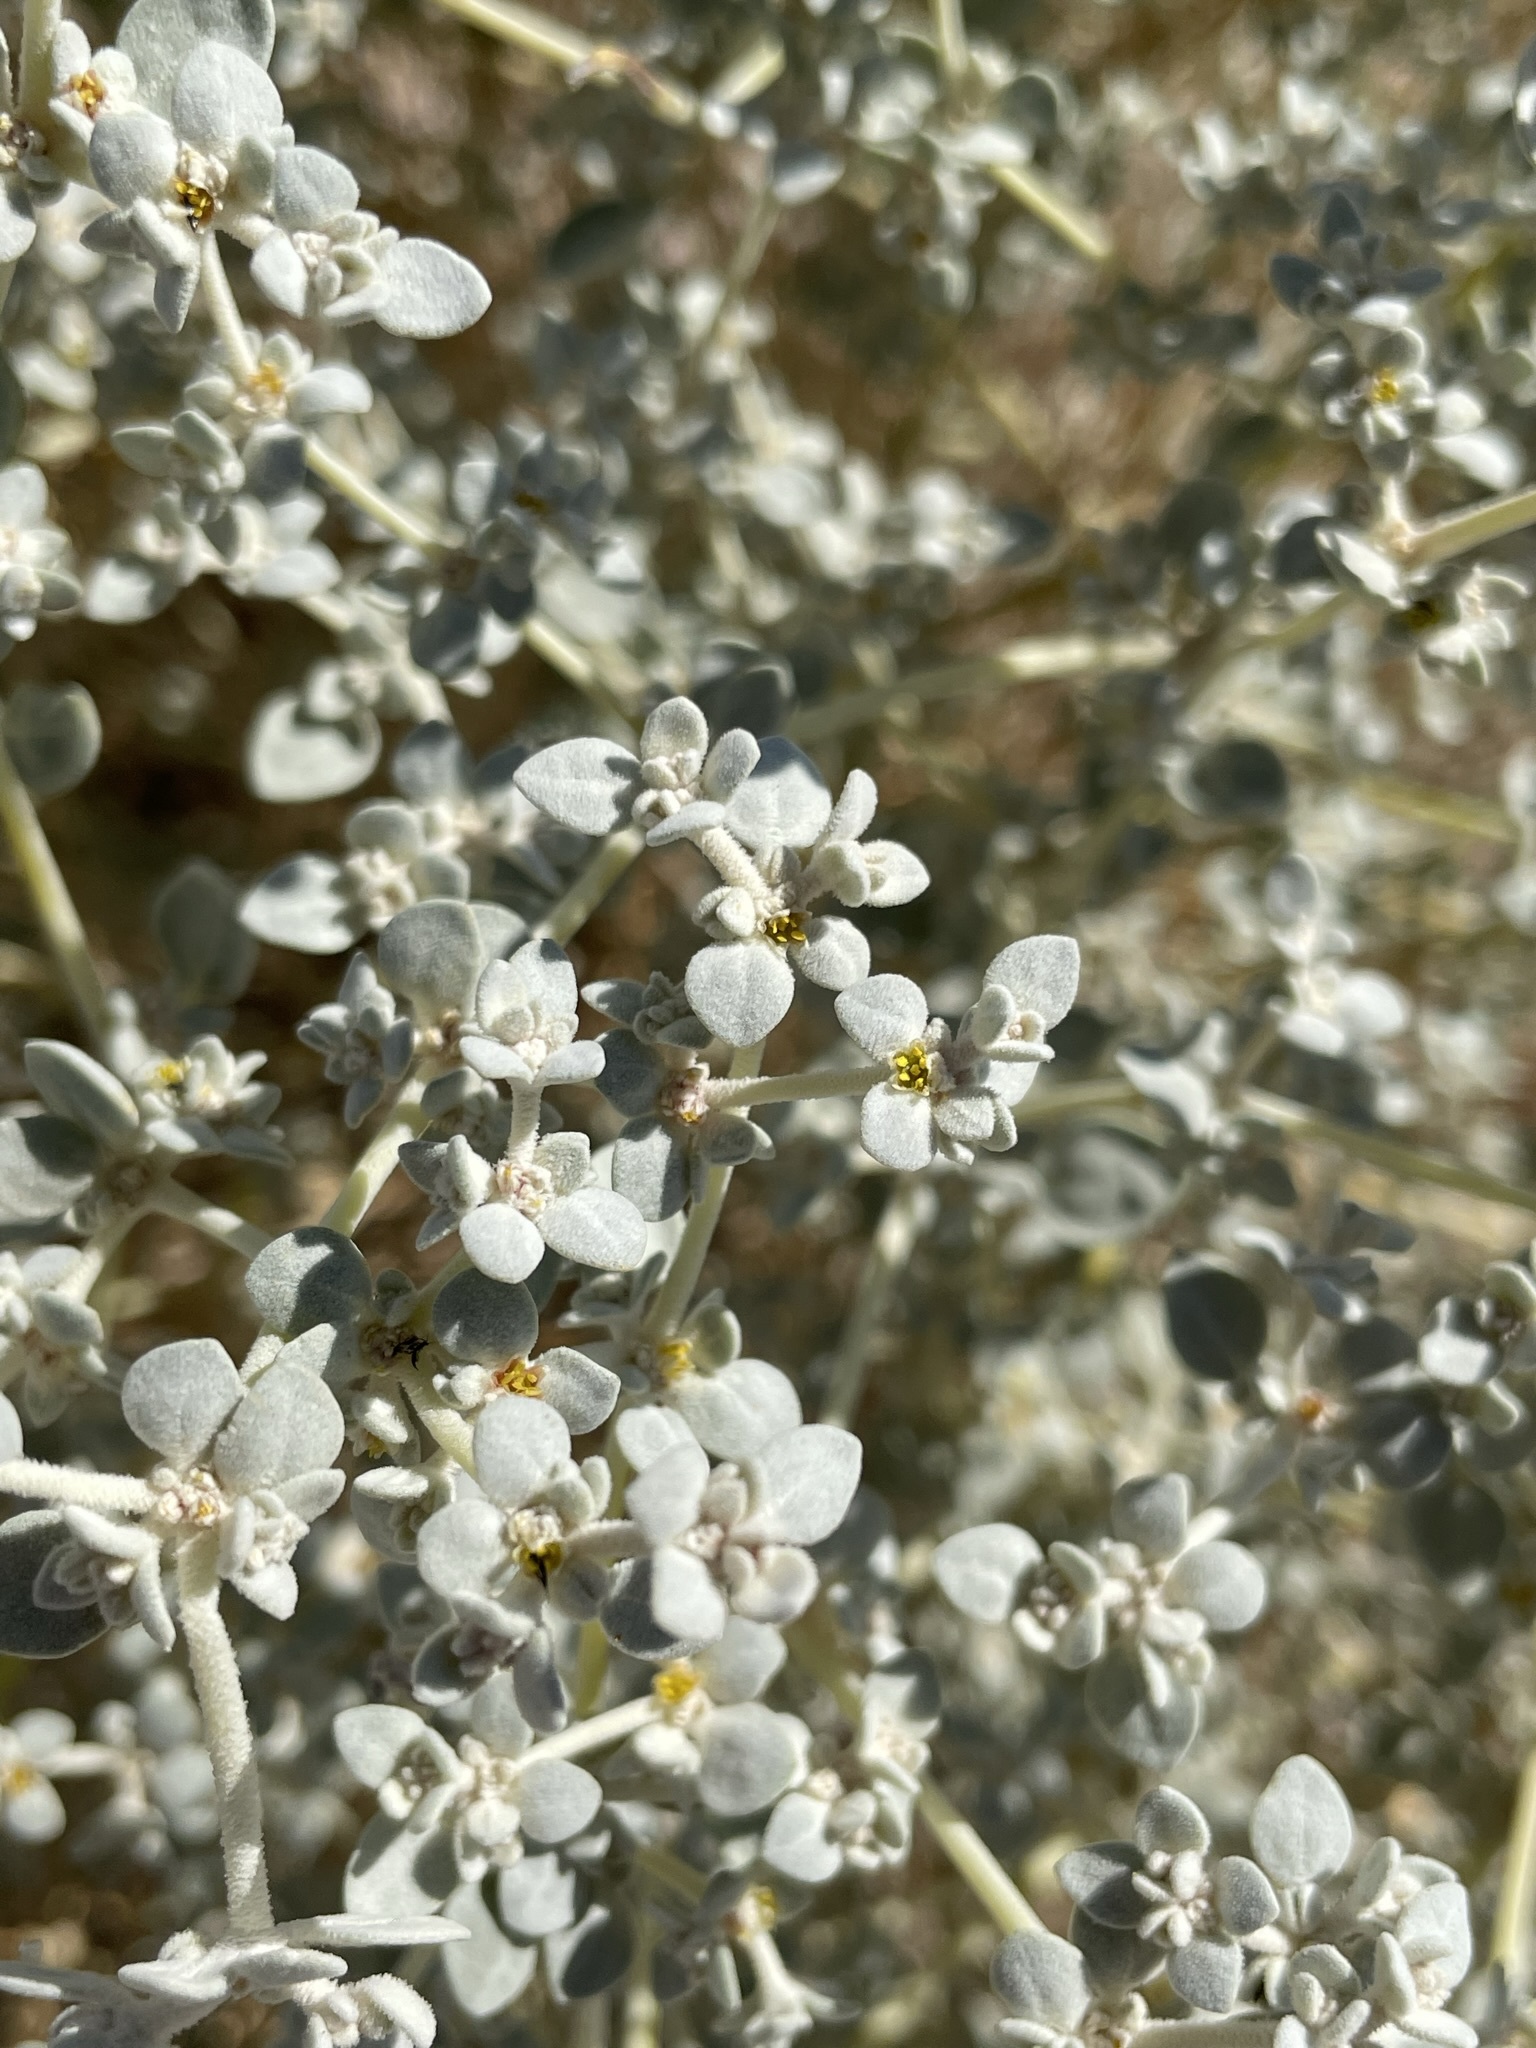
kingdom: Plantae
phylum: Tracheophyta
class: Magnoliopsida
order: Caryophyllales
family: Amaranthaceae
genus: Tidestromia
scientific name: Tidestromia suffruticosa
